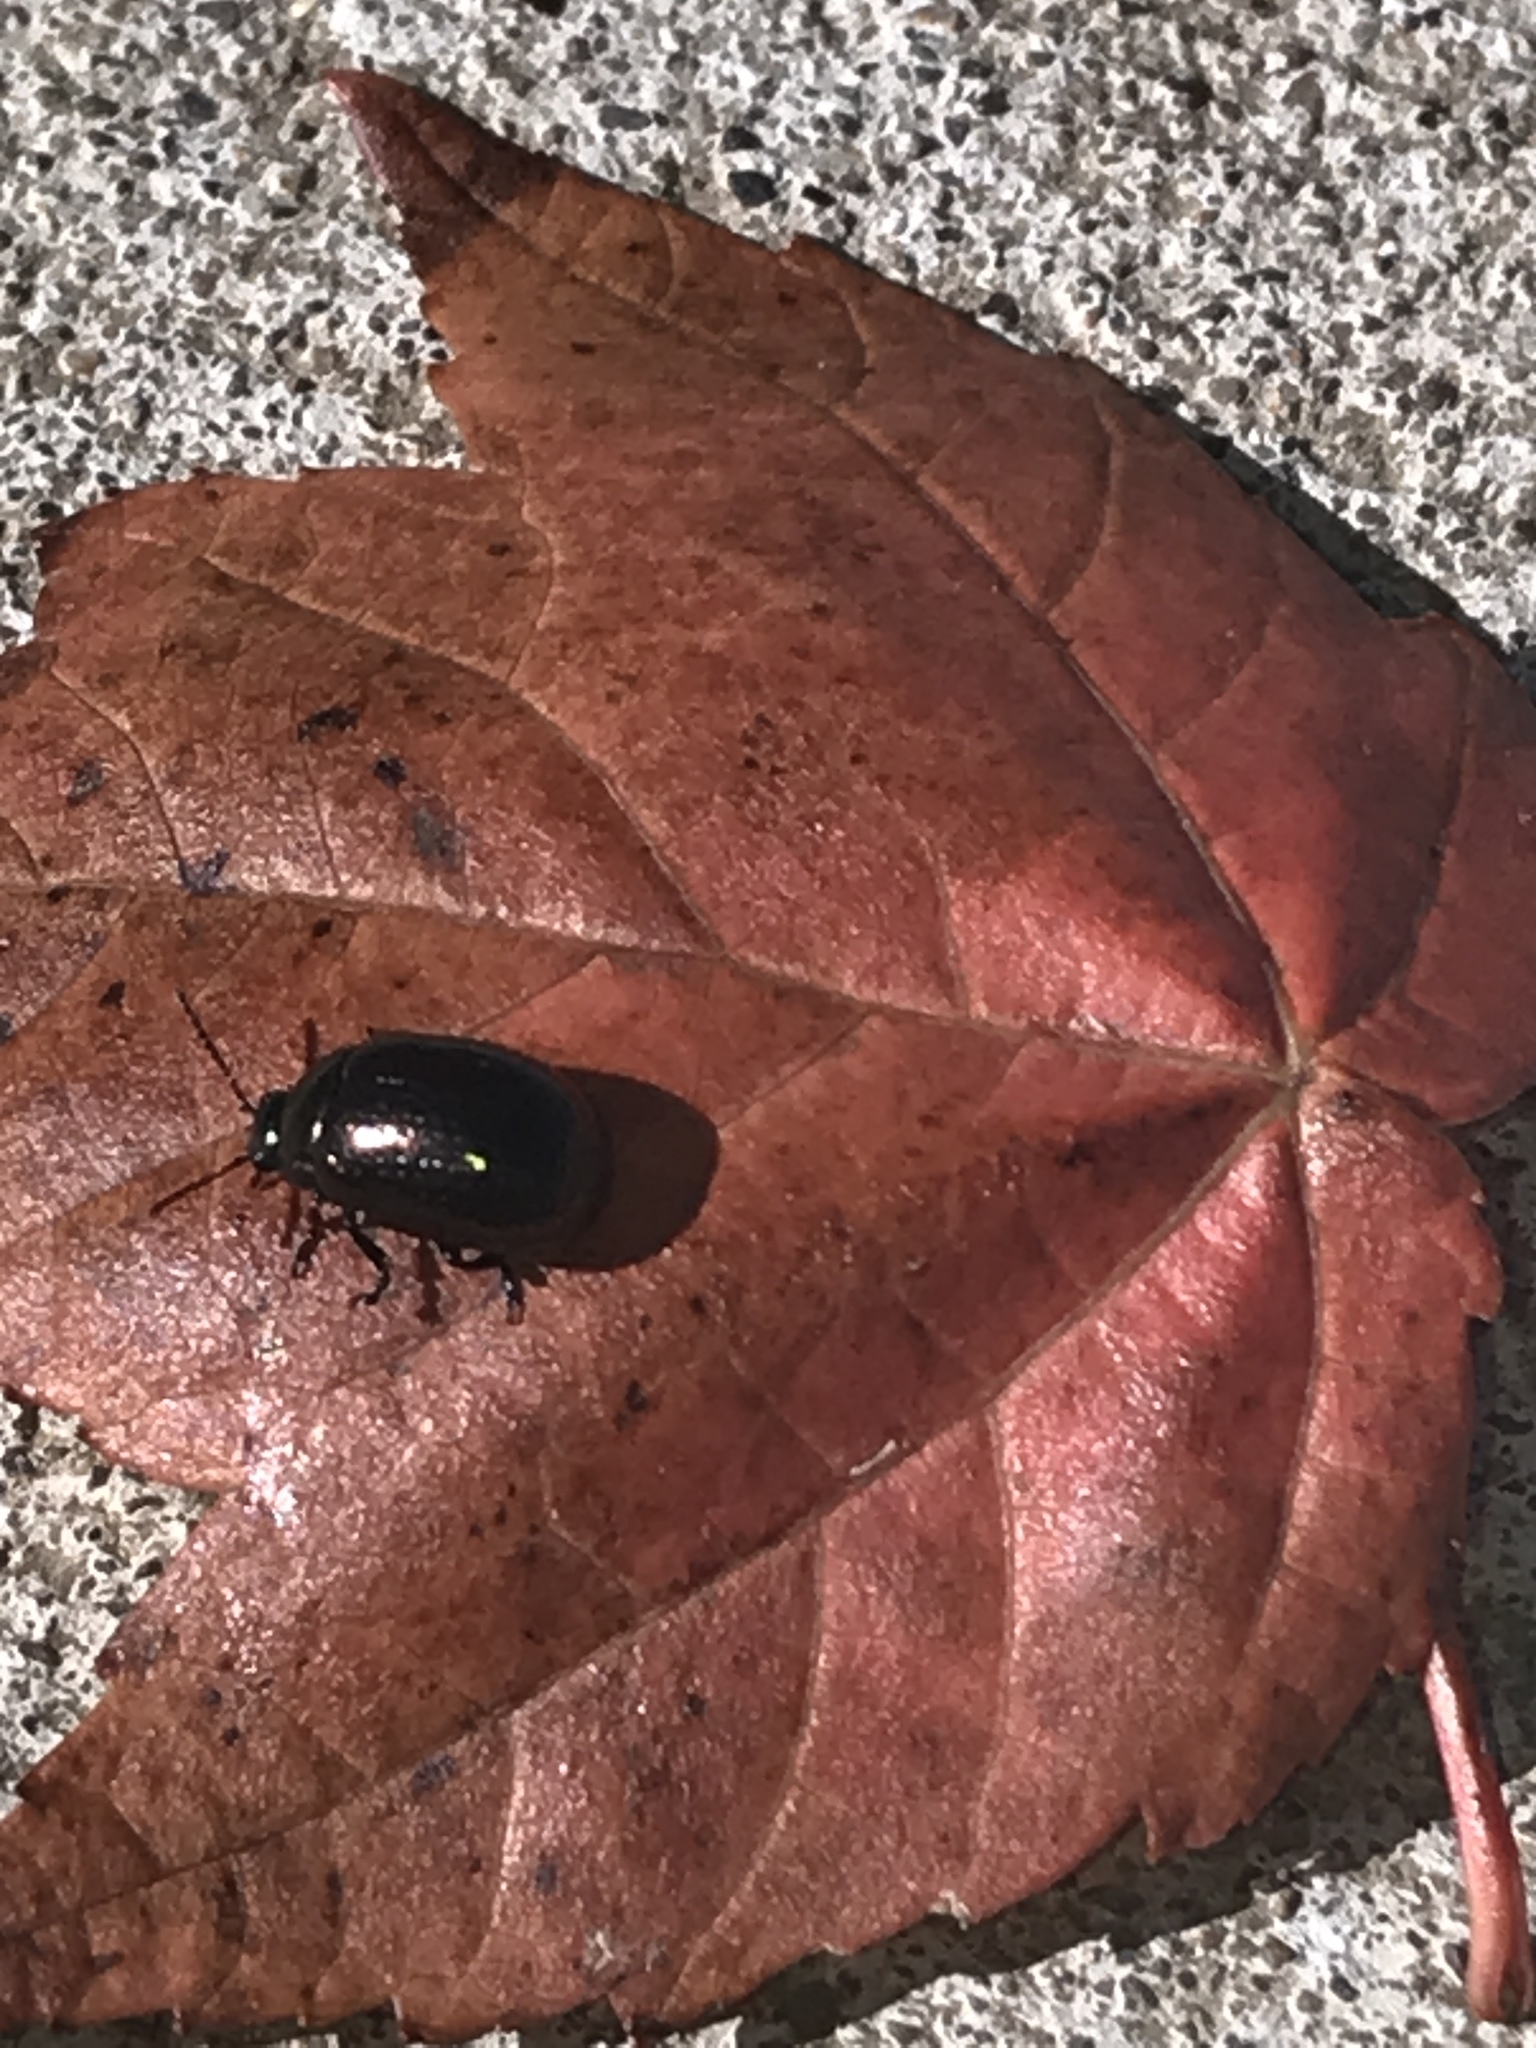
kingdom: Animalia
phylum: Arthropoda
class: Insecta
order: Coleoptera
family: Chrysomelidae
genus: Chrysolina
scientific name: Chrysolina hyperici
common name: St. johnswort beetle
